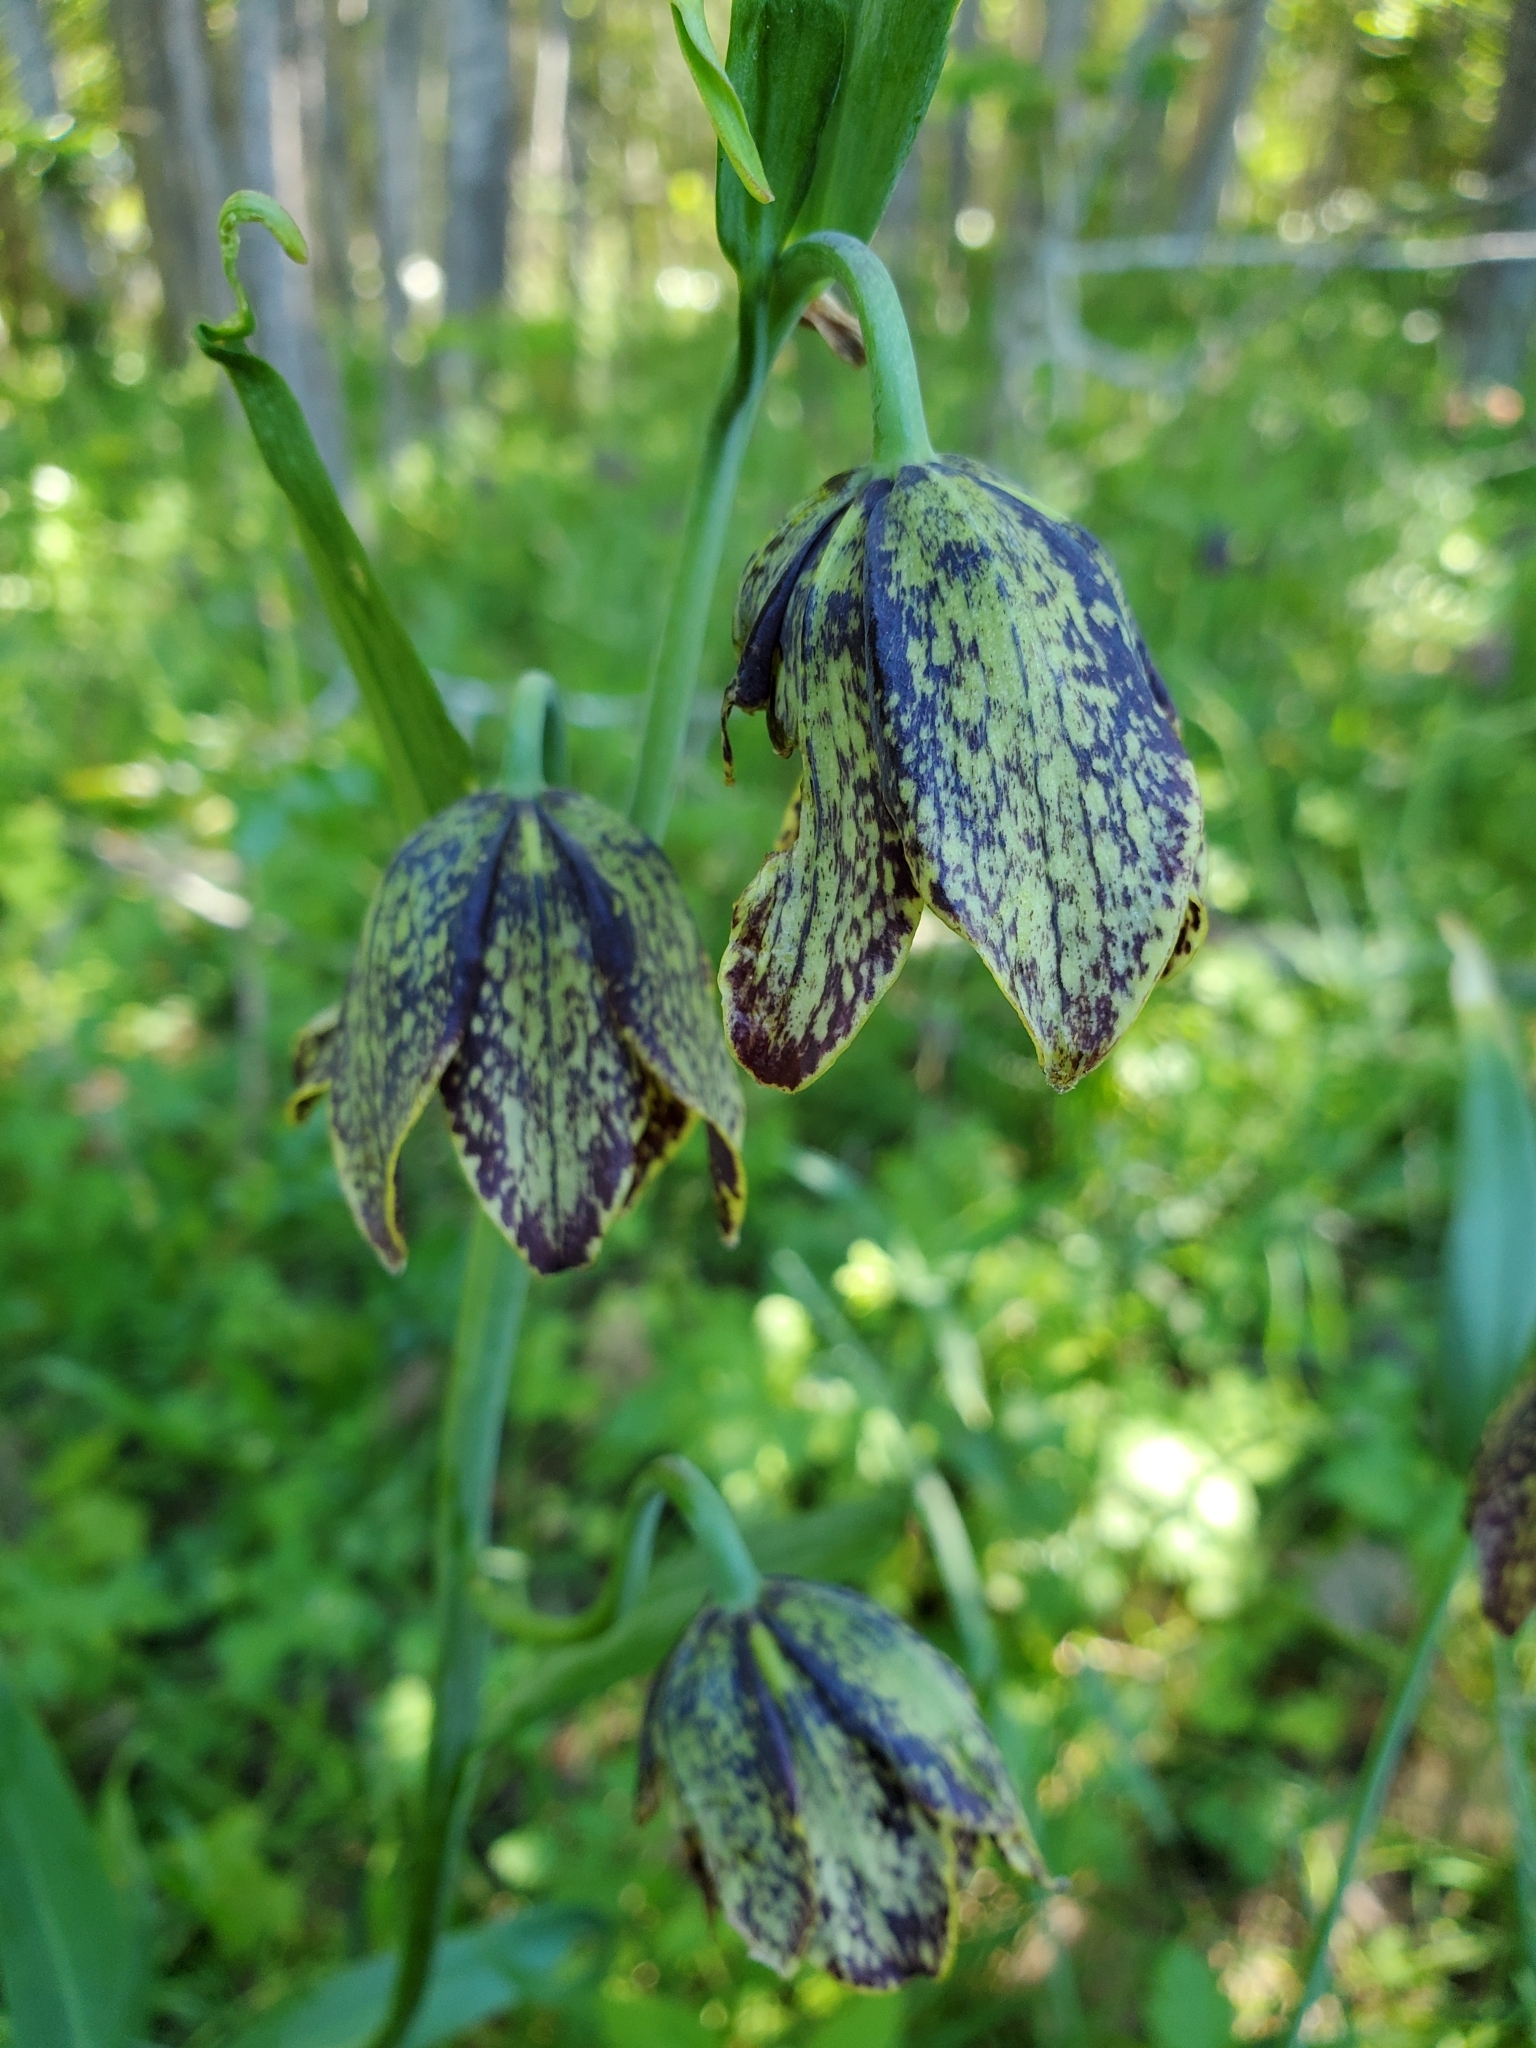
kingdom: Plantae
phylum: Tracheophyta
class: Liliopsida
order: Liliales
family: Liliaceae
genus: Fritillaria
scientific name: Fritillaria affinis
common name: Ojai fritillary
